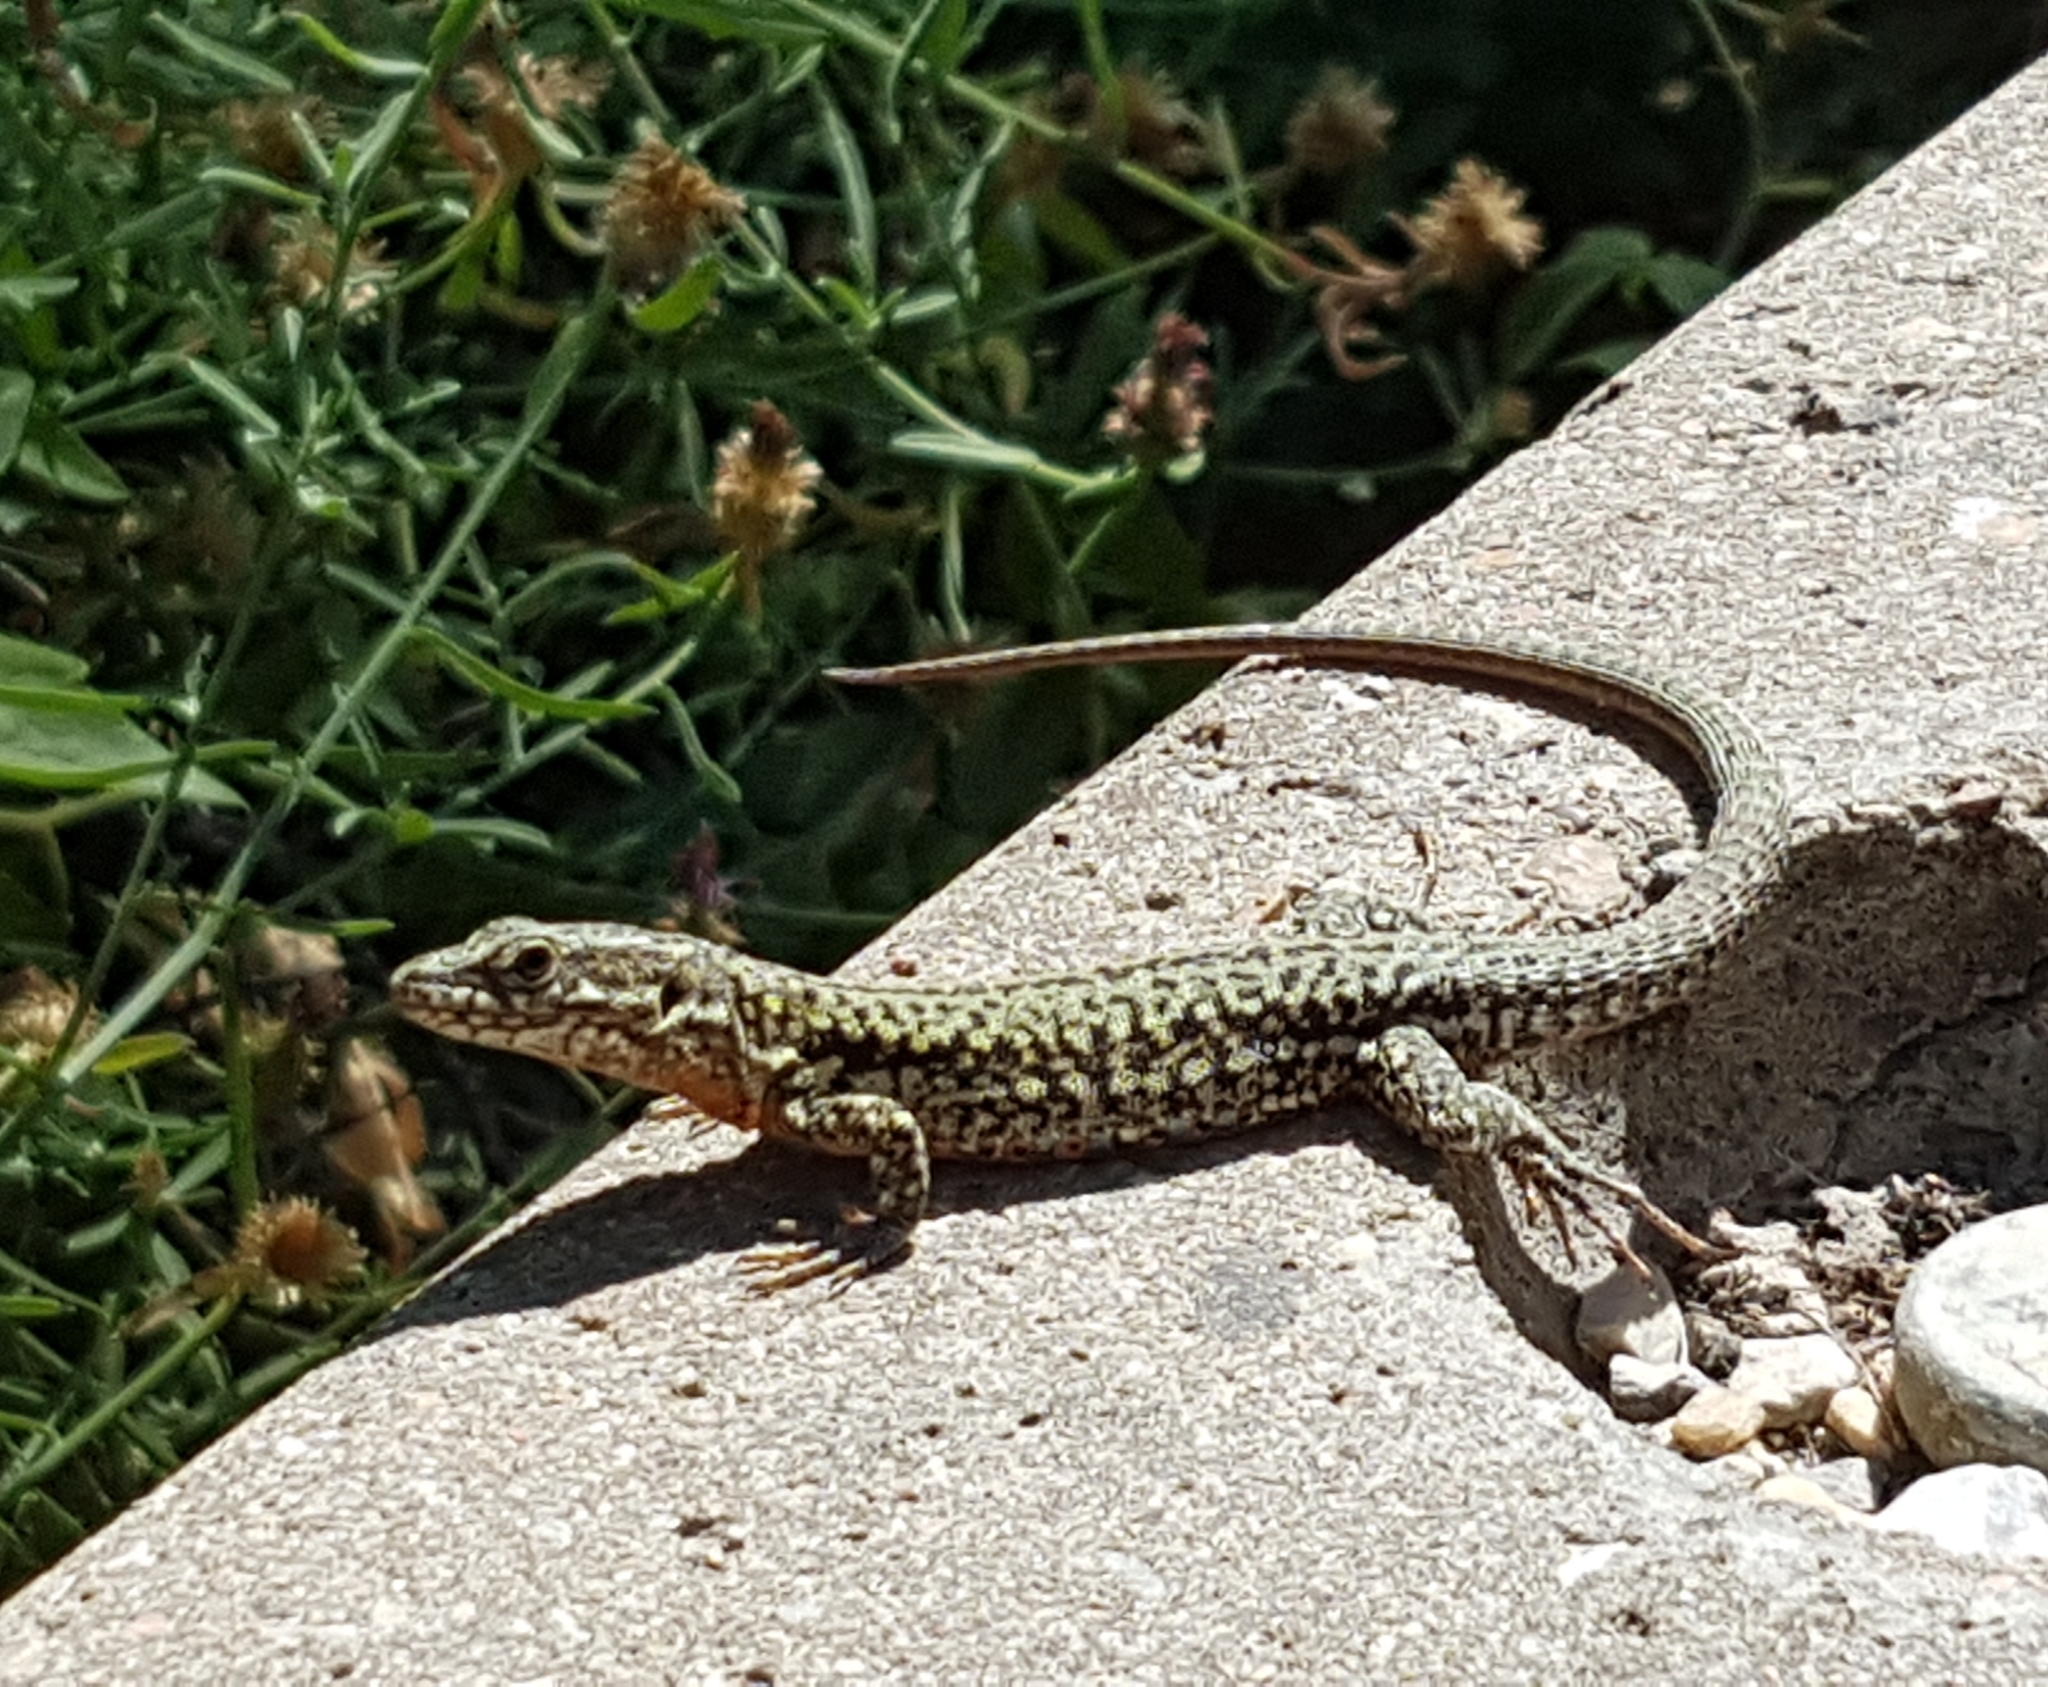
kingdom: Animalia
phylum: Chordata
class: Squamata
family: Lacertidae
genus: Podarcis
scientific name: Podarcis muralis
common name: Common wall lizard
